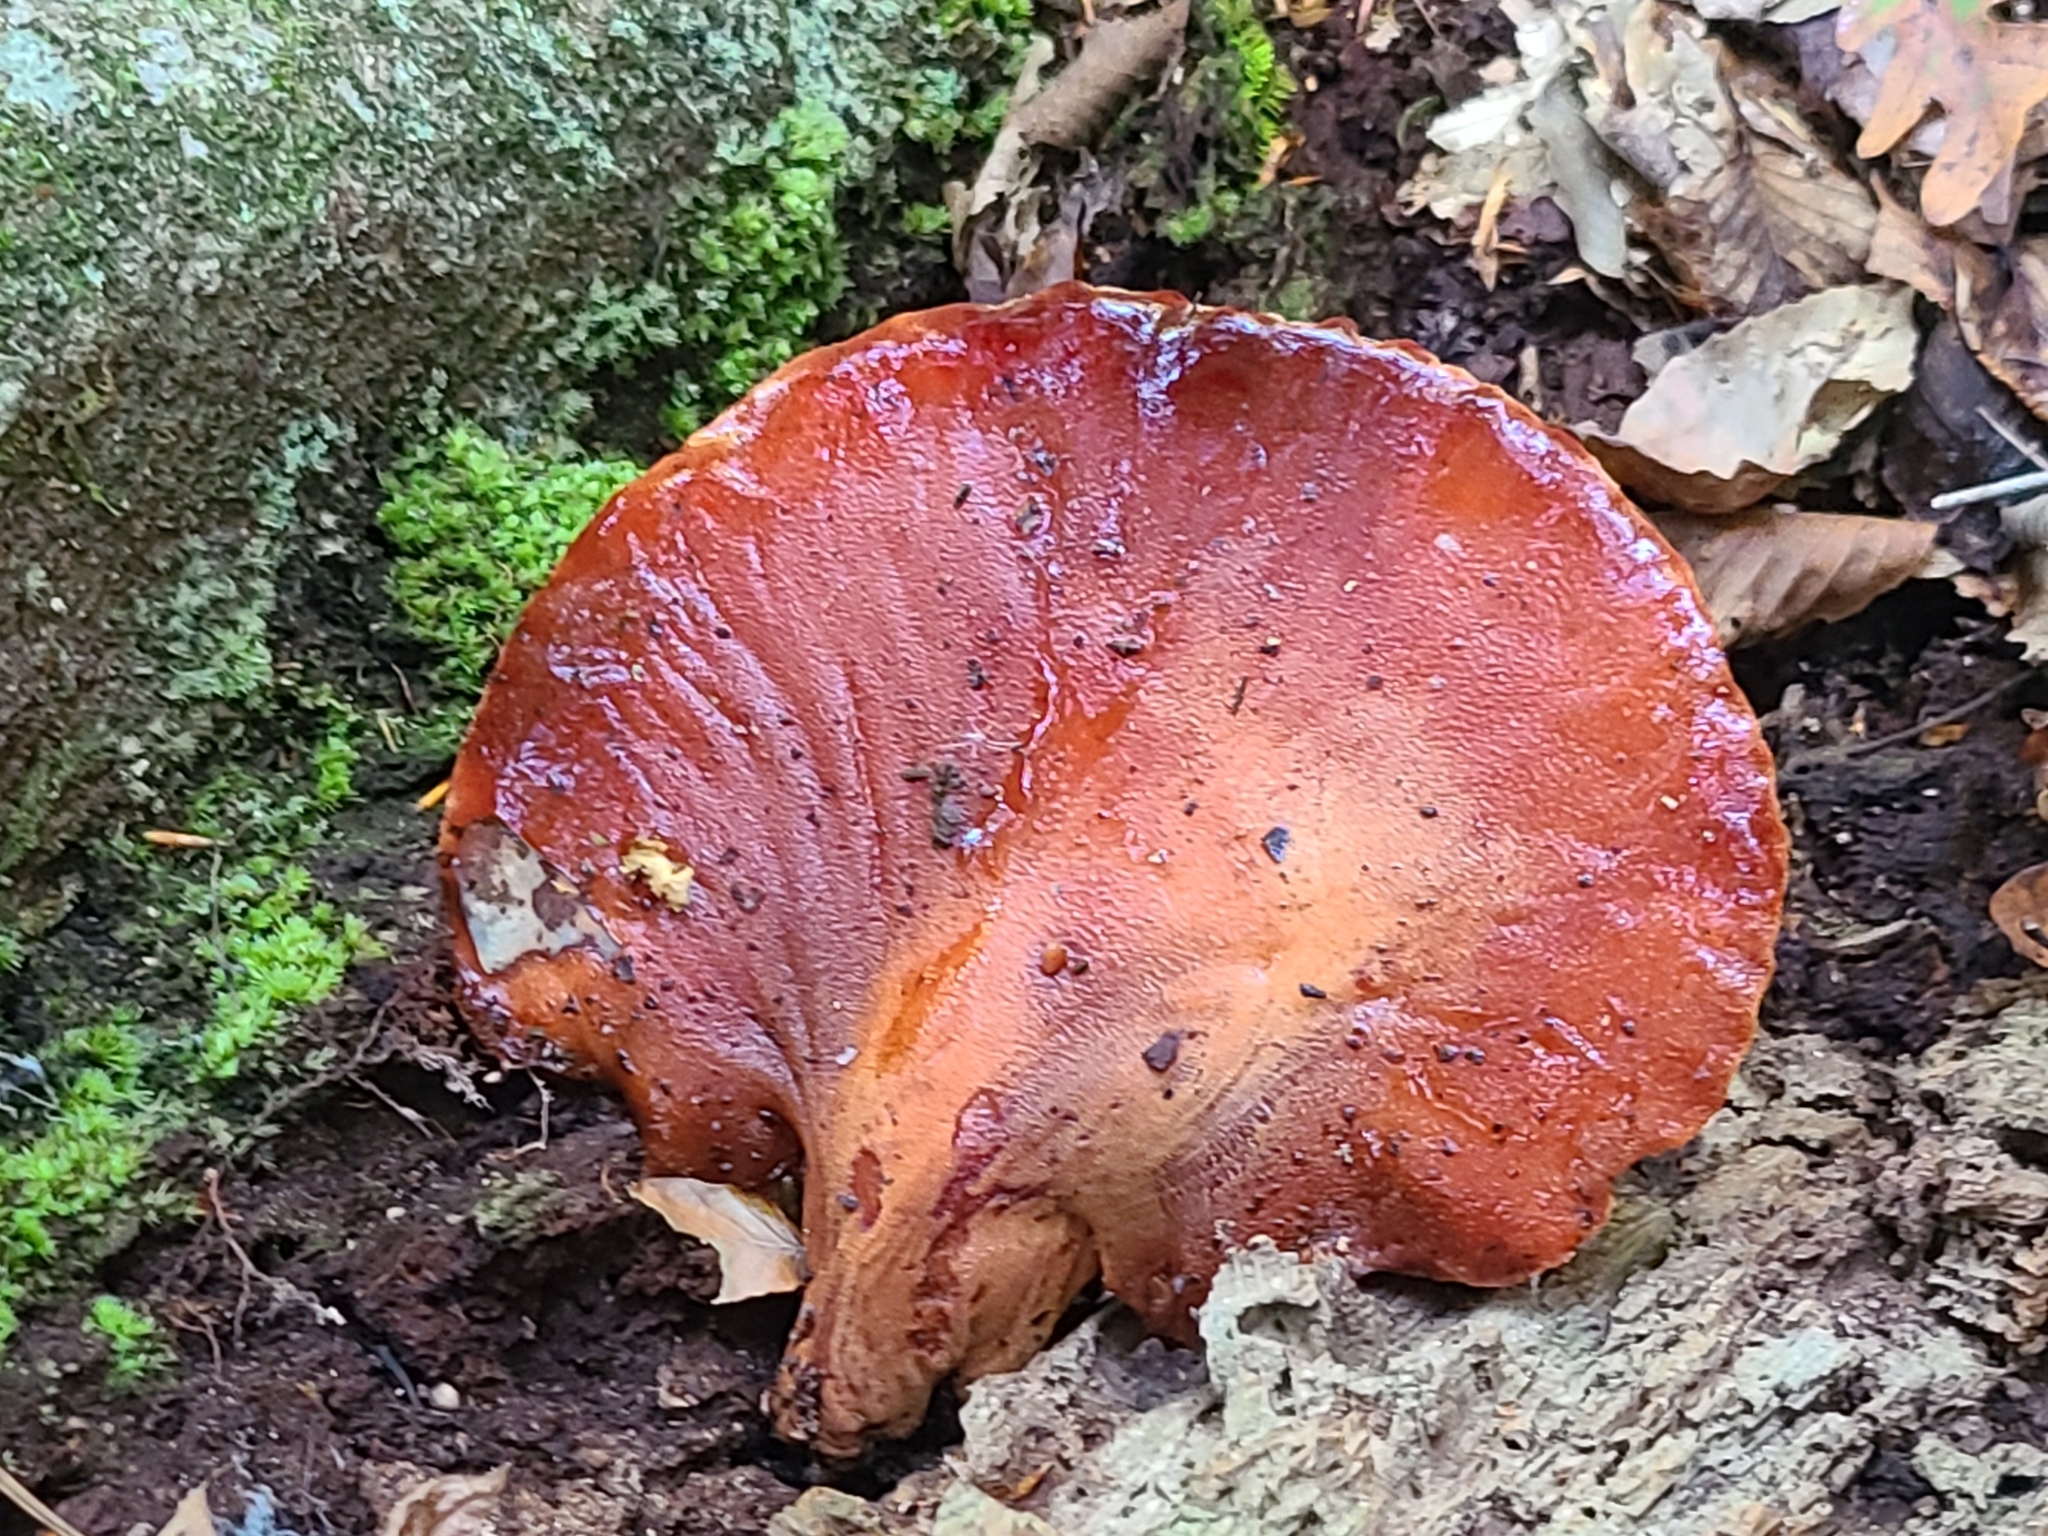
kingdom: Fungi
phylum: Basidiomycota
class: Agaricomycetes
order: Agaricales
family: Fistulinaceae
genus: Fistulina
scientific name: Fistulina hepatica
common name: Beef-steak fungus
